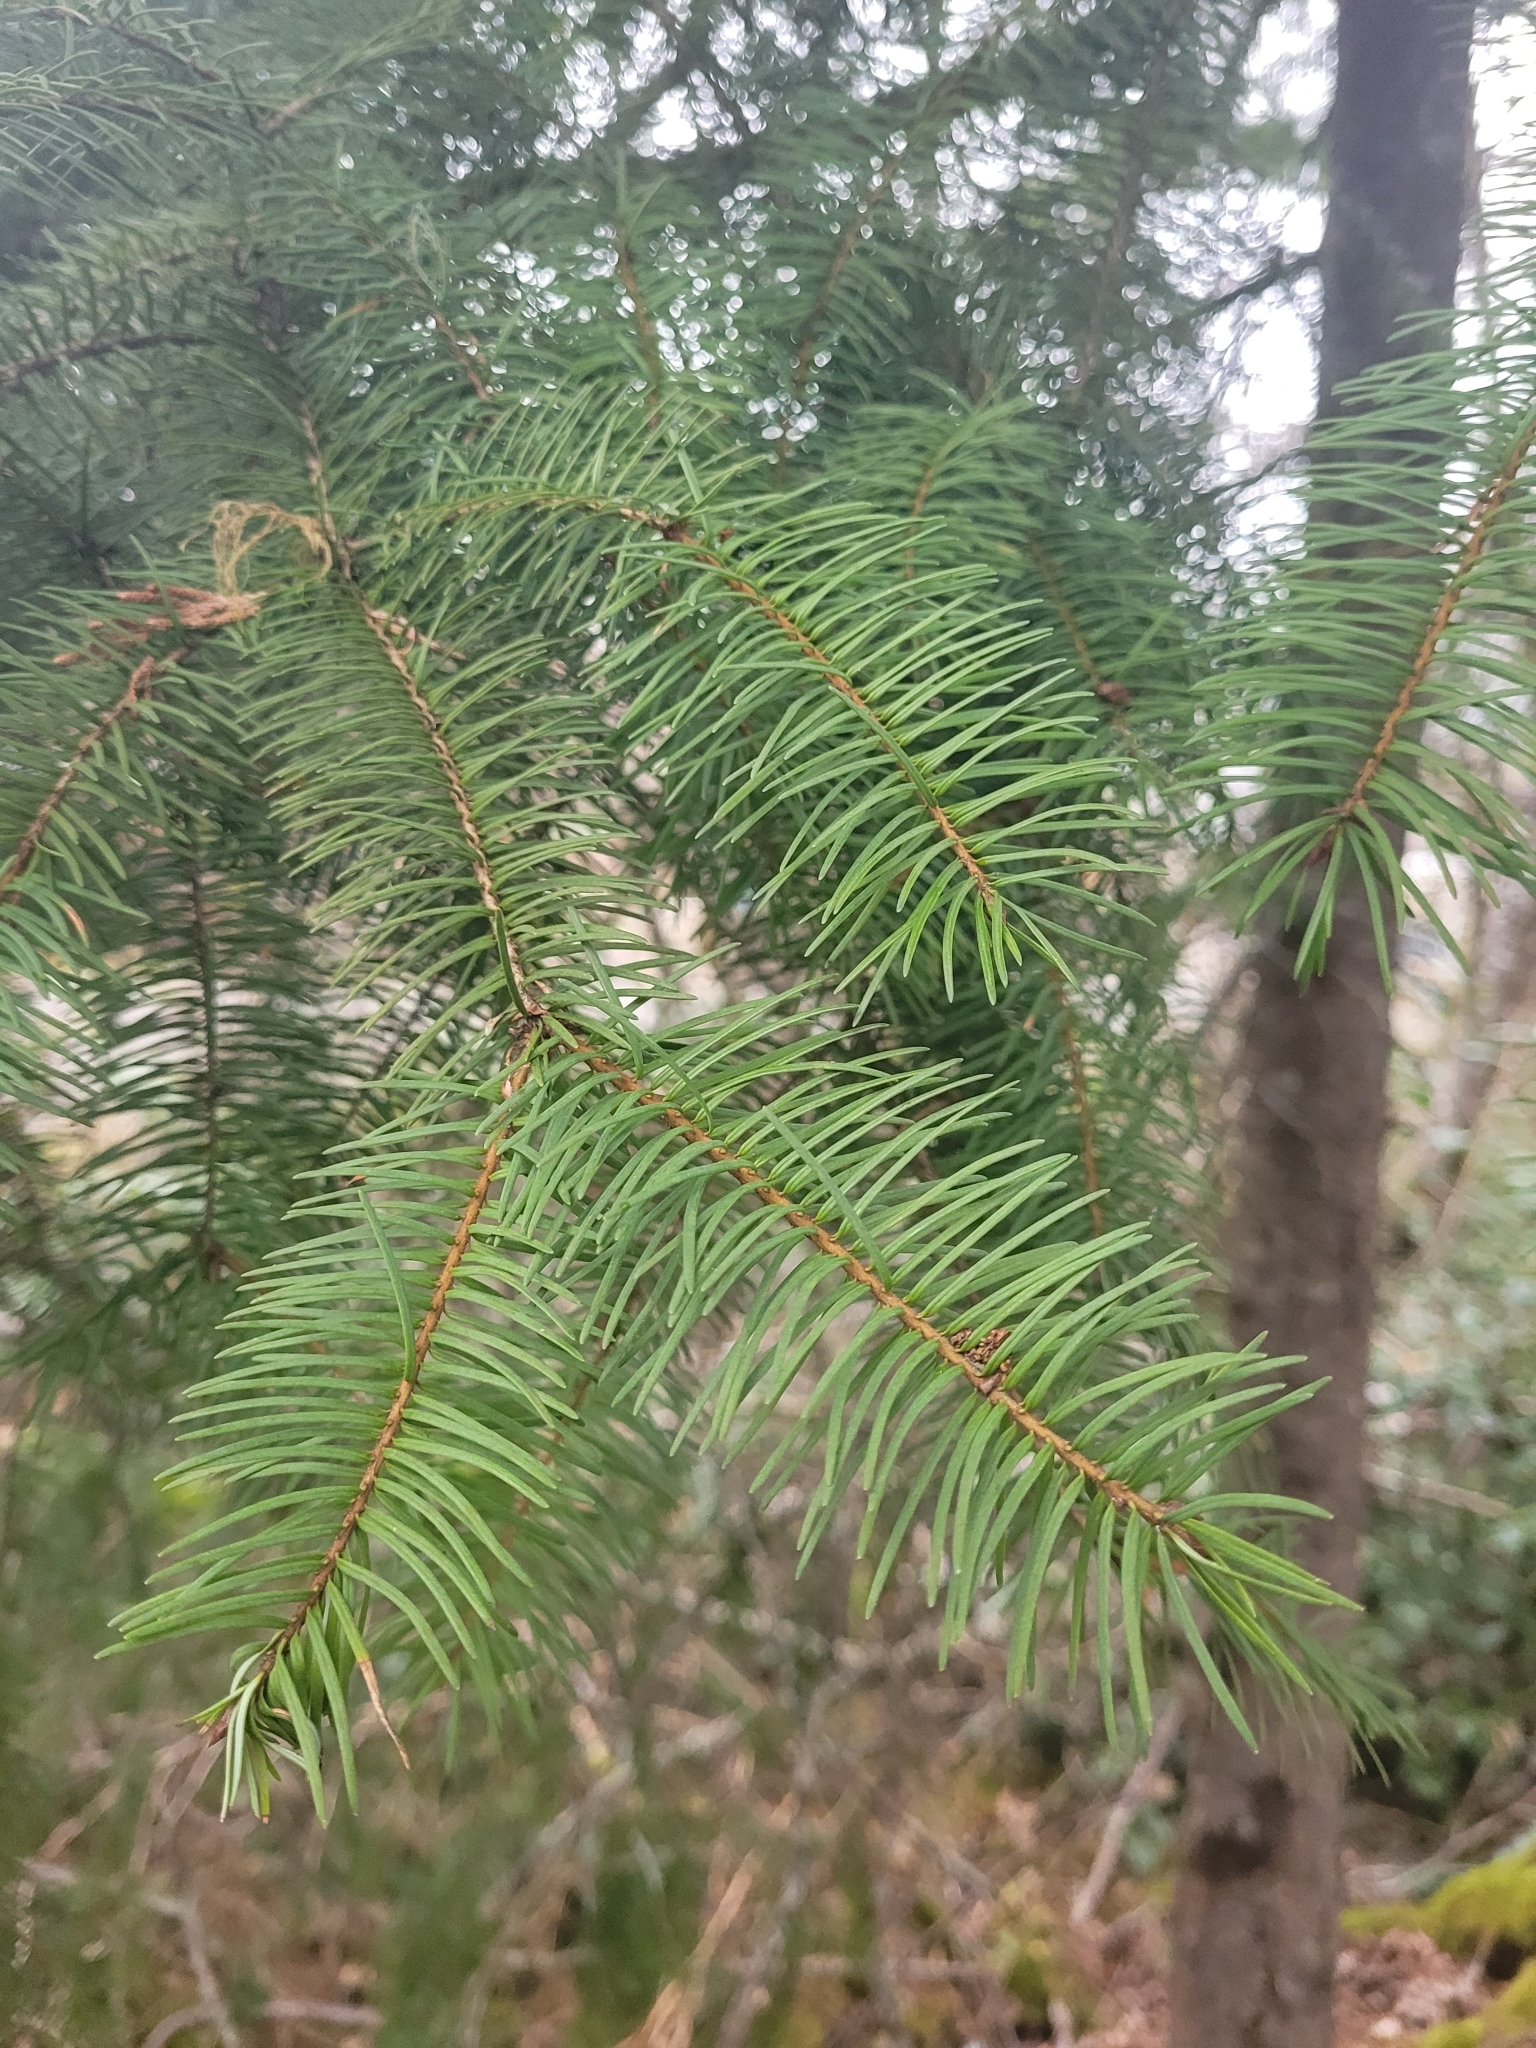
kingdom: Plantae
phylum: Tracheophyta
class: Pinopsida
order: Pinales
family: Pinaceae
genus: Pseudotsuga
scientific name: Pseudotsuga menziesii
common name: Douglas fir
